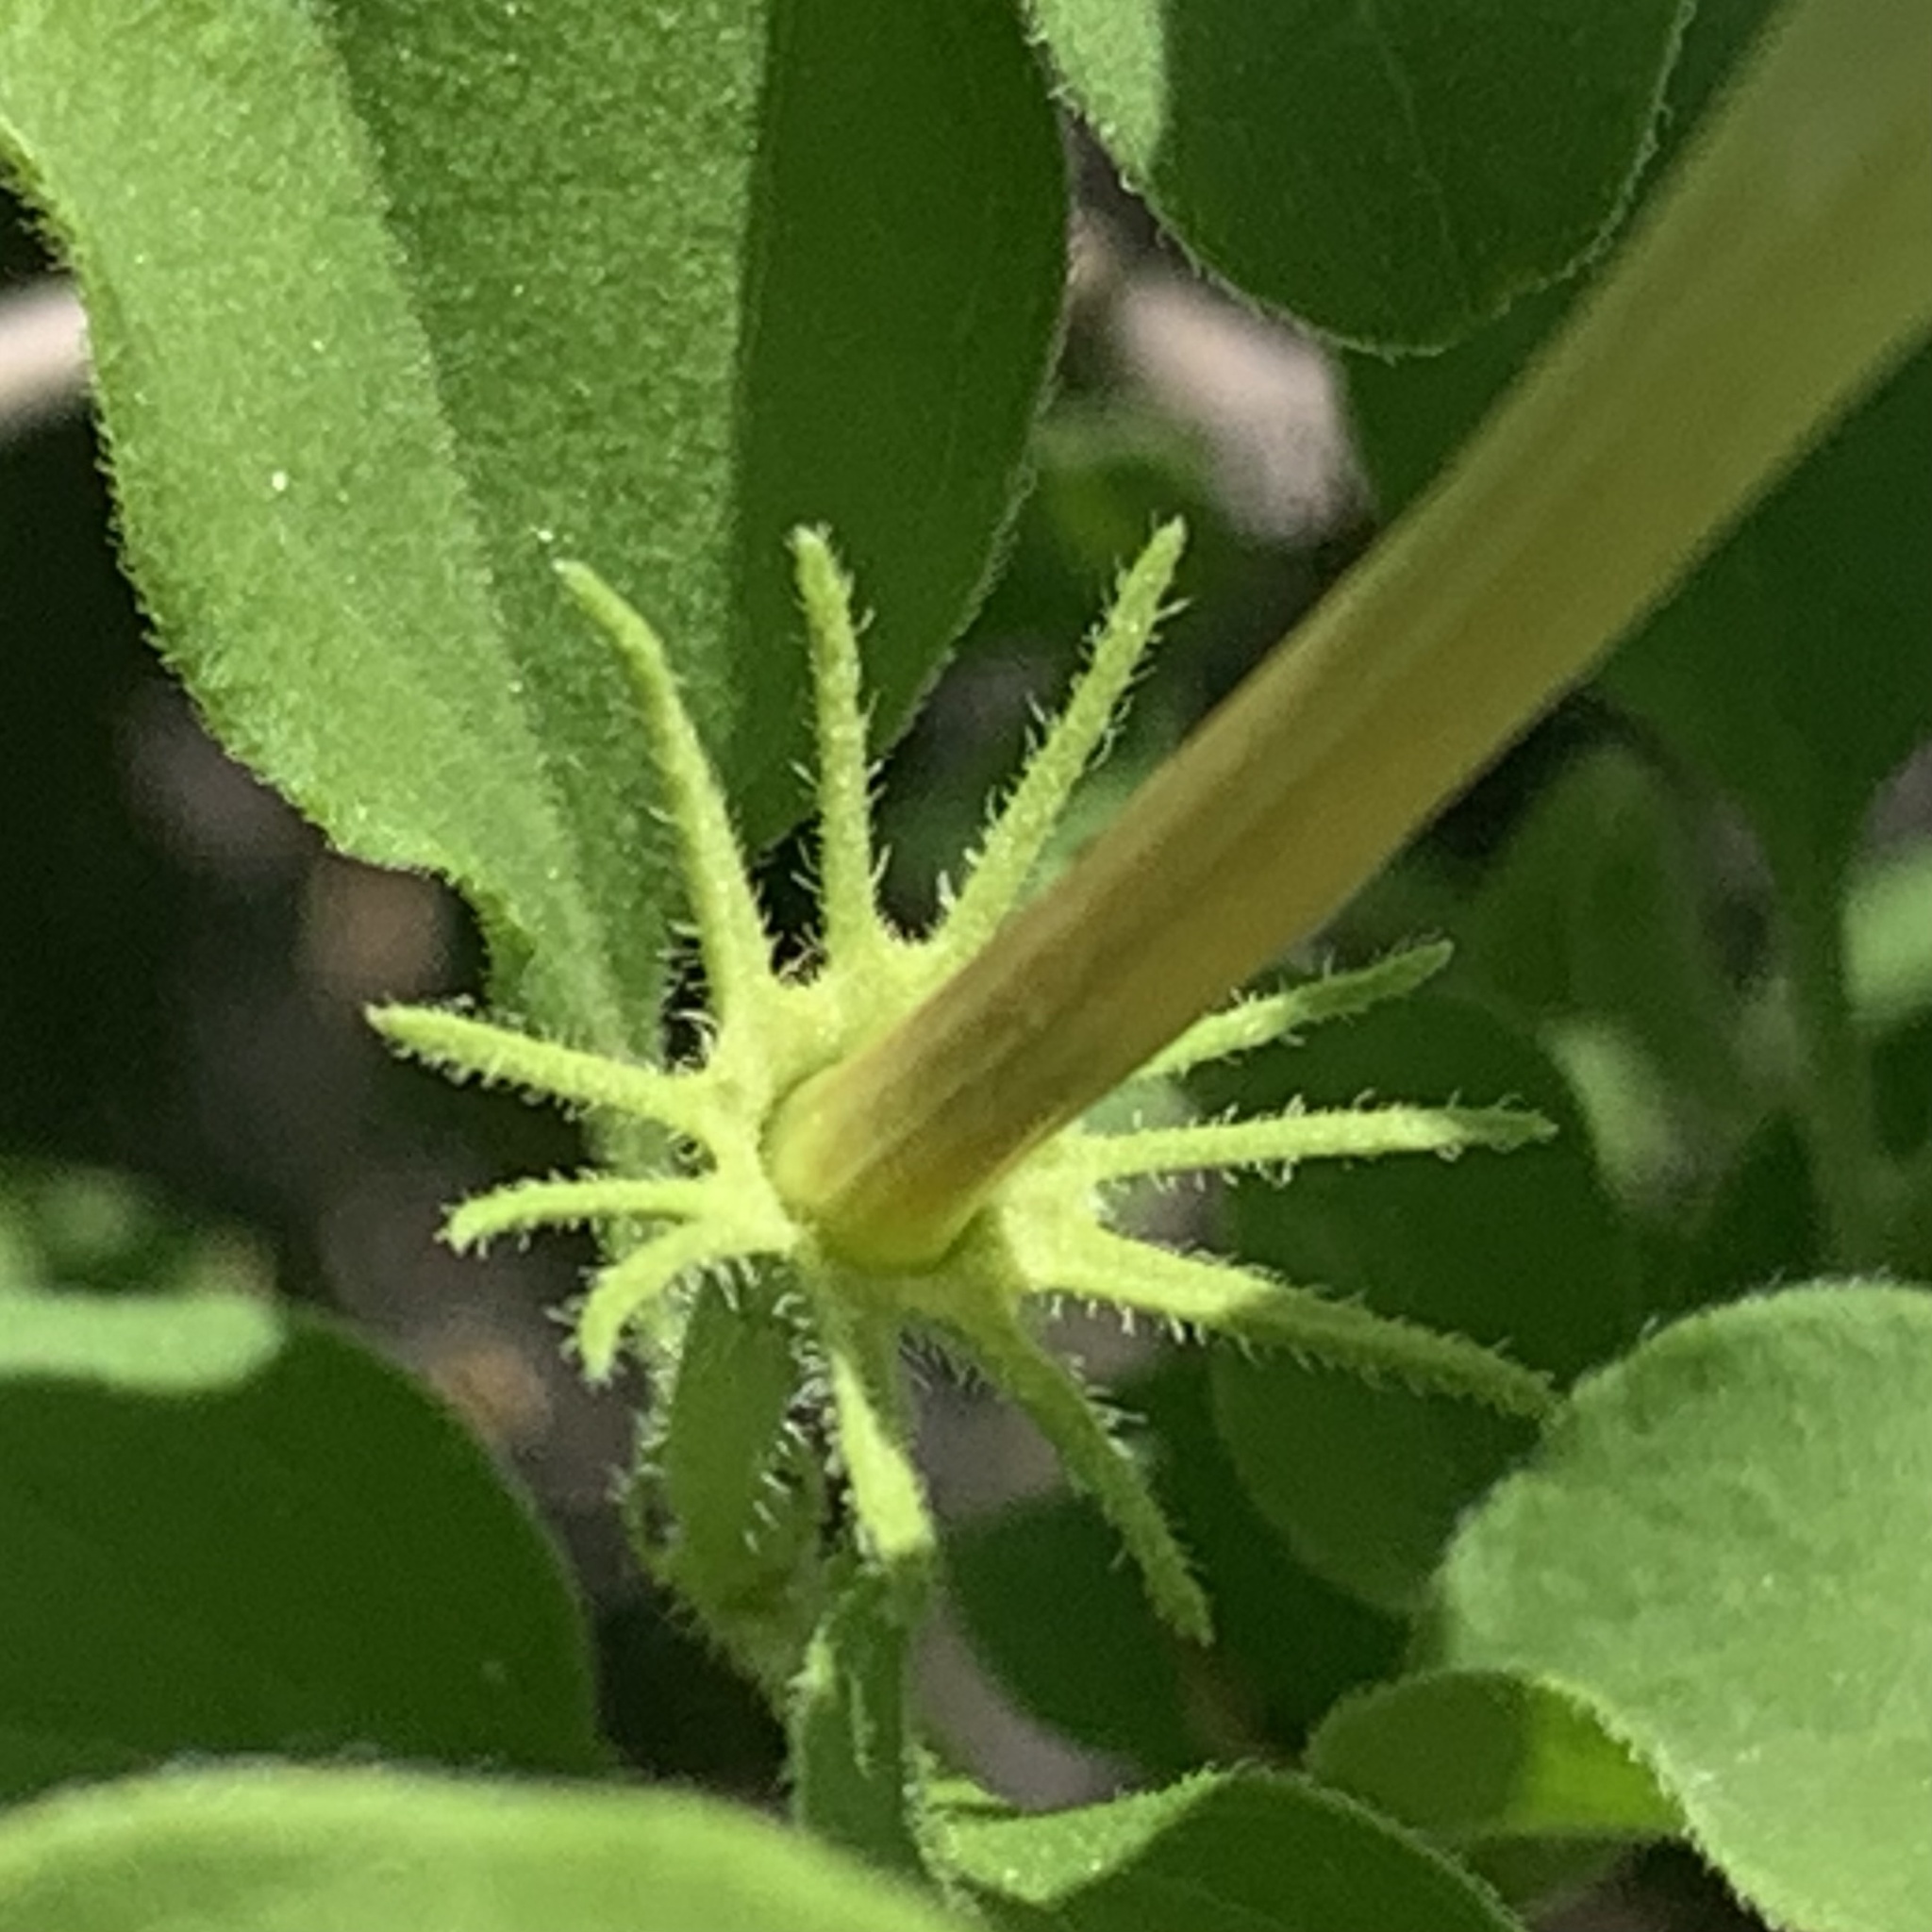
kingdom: Plantae
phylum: Tracheophyta
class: Magnoliopsida
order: Lamiales
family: Oleaceae
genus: Jasminum
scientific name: Jasminum stenolobum
